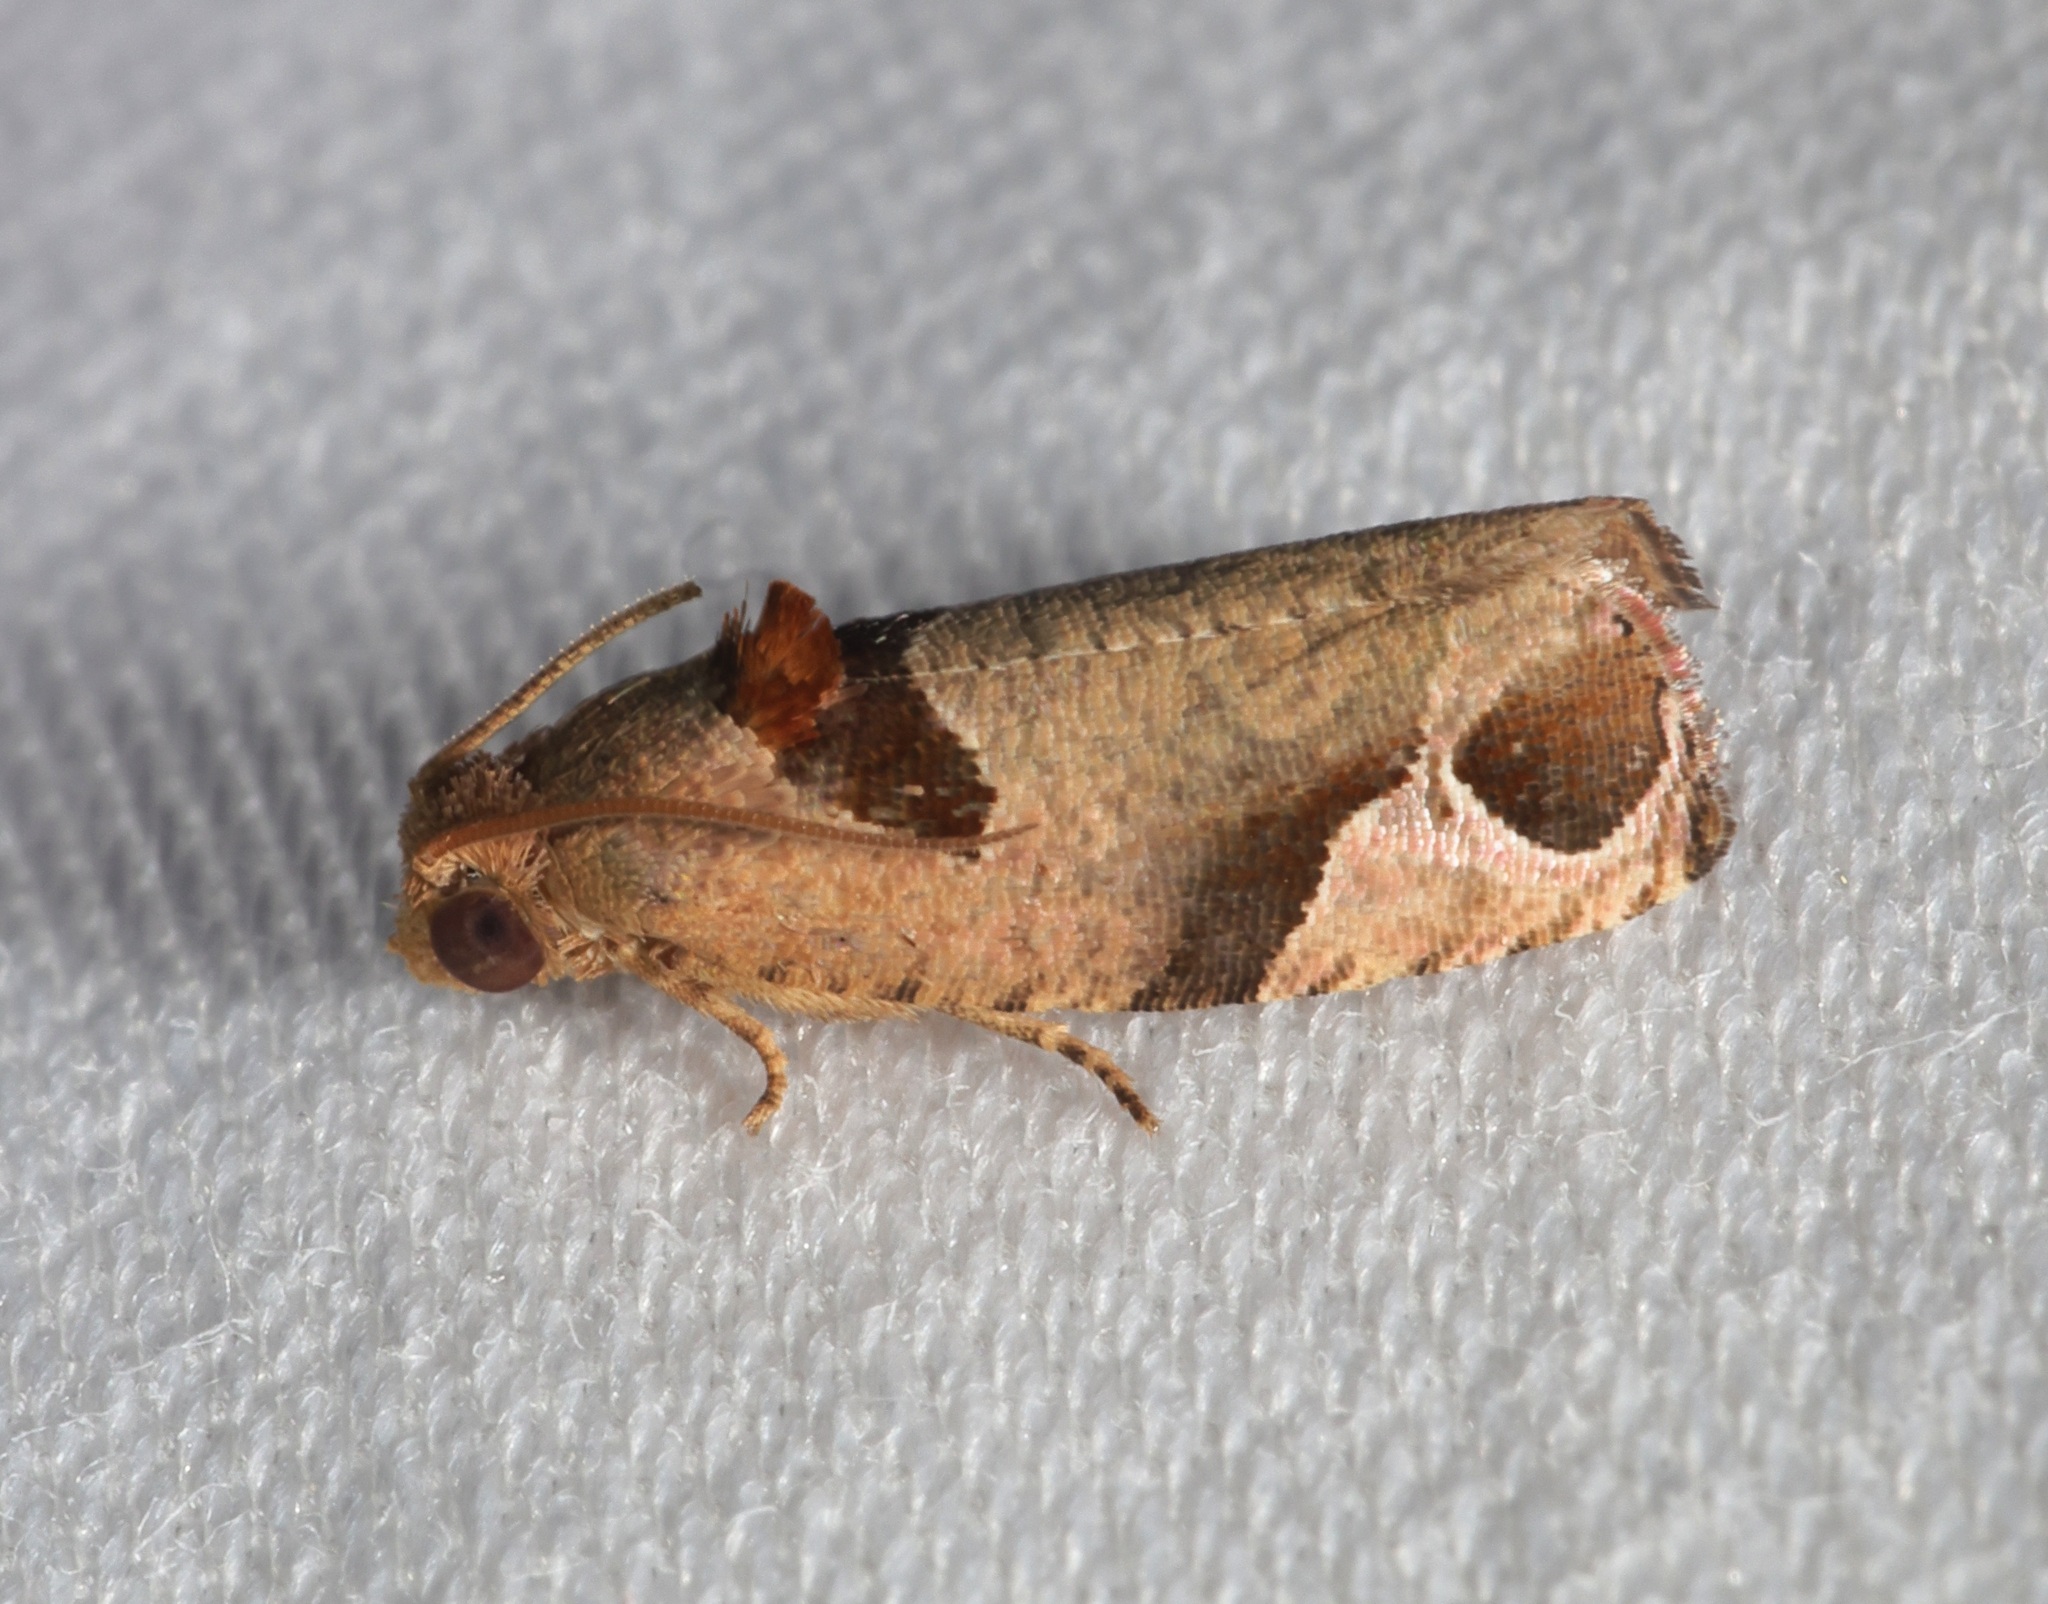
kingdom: Animalia
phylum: Arthropoda
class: Insecta
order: Lepidoptera
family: Tortricidae
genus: Sorolopha
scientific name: Sorolopha archimedias
